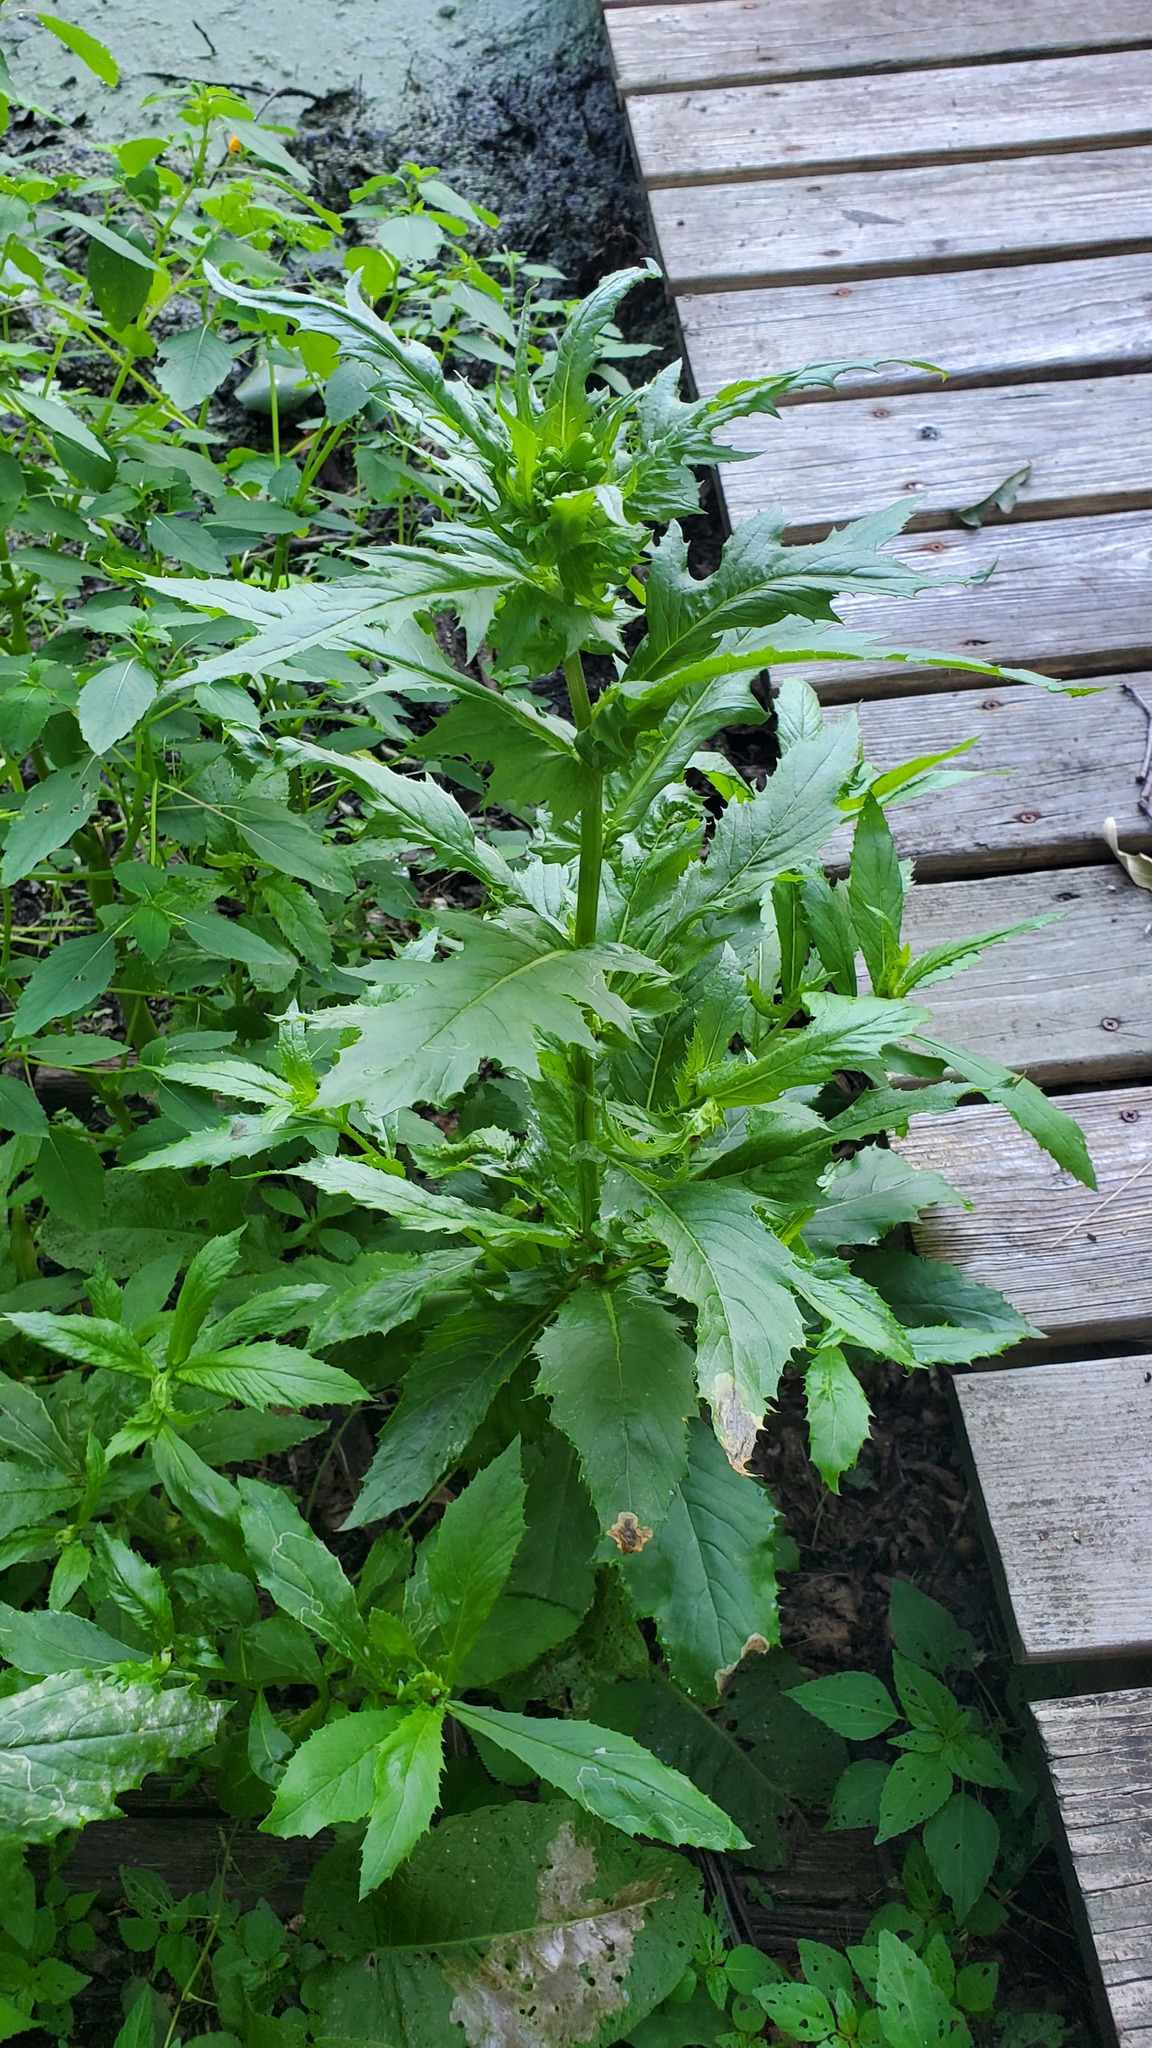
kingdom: Plantae
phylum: Tracheophyta
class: Magnoliopsida
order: Asterales
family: Asteraceae
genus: Erechtites
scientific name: Erechtites hieraciifolius
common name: American burnweed
